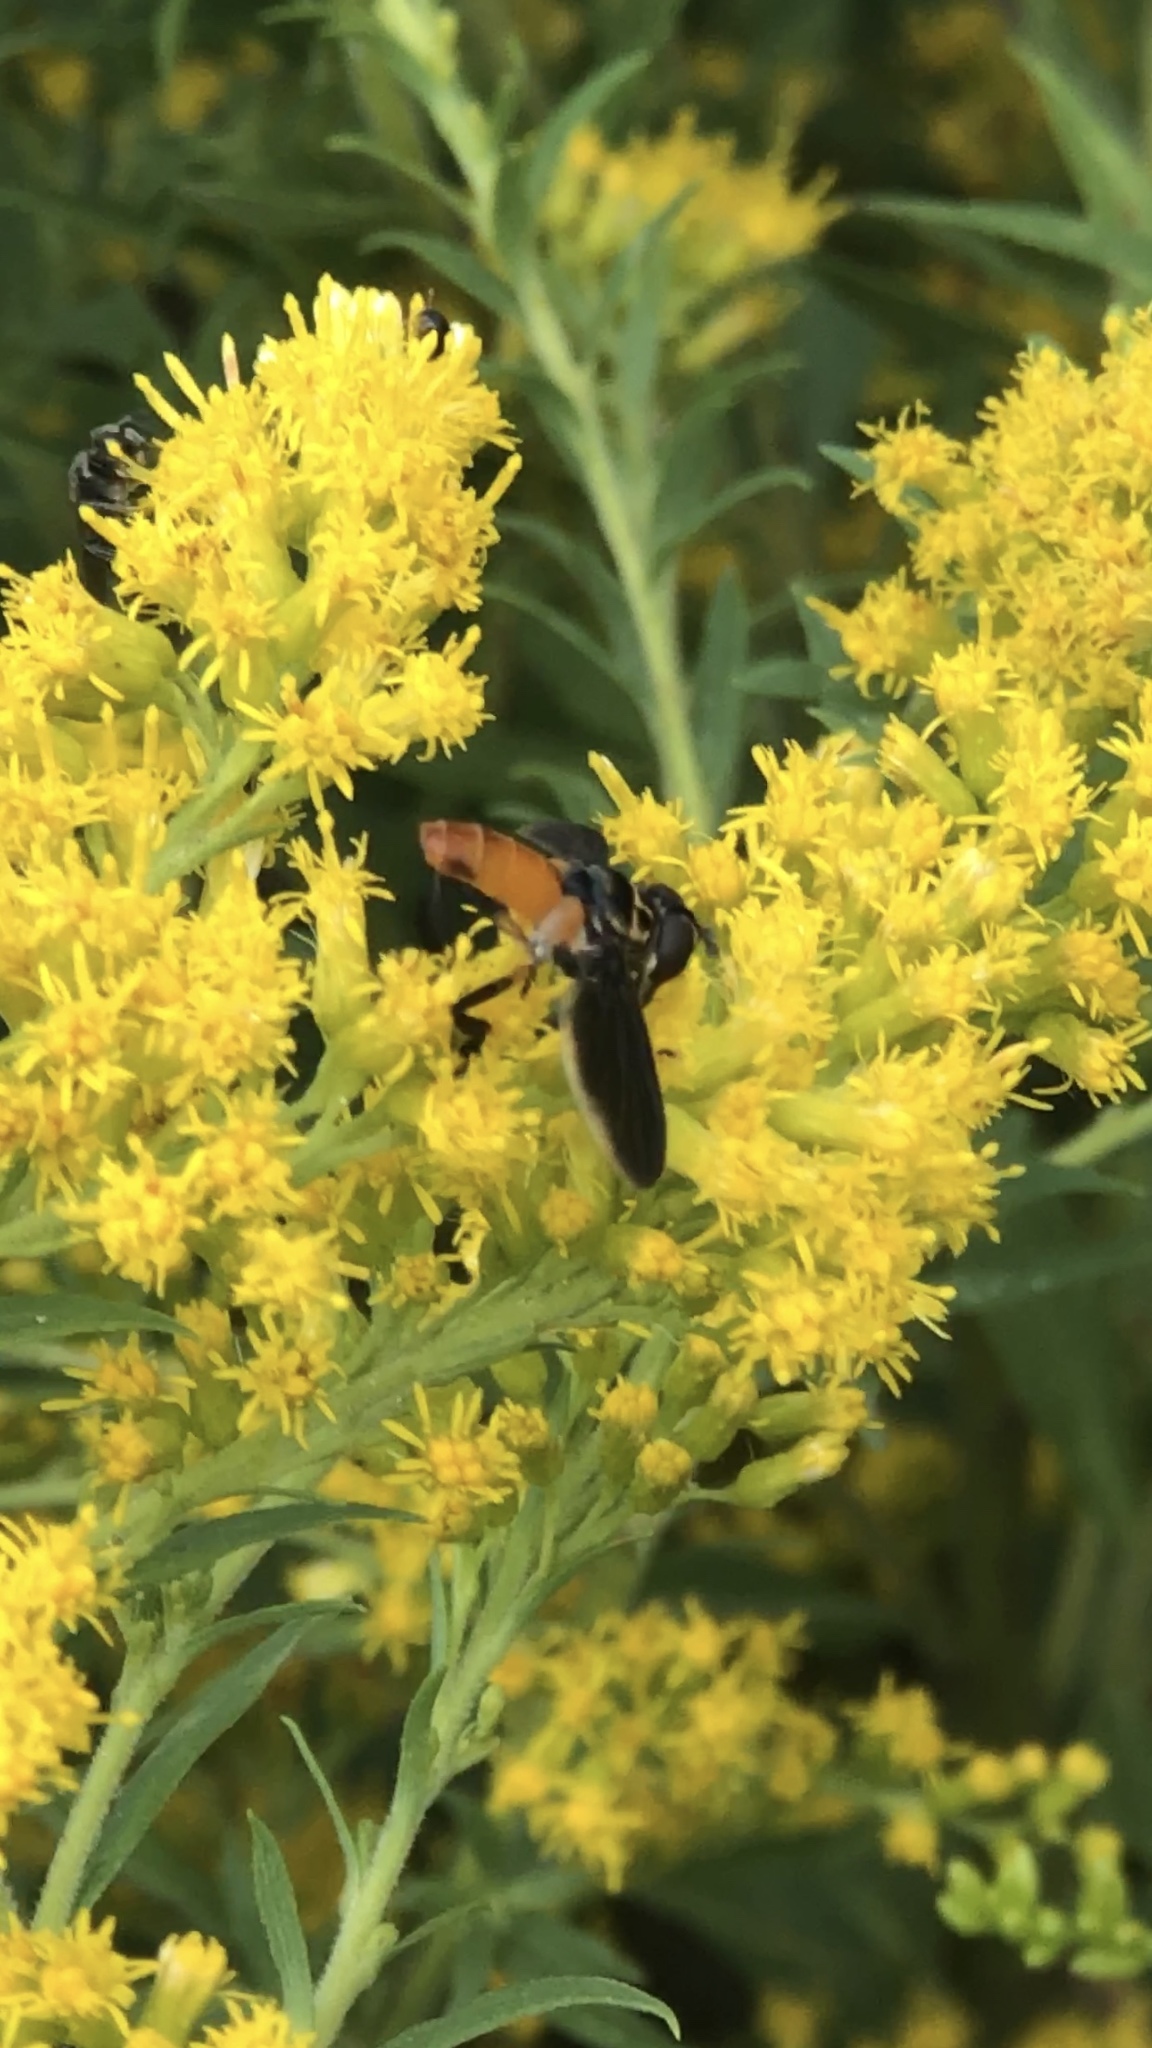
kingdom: Animalia
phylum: Arthropoda
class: Insecta
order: Diptera
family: Tachinidae
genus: Trichopoda
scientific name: Trichopoda pennipes
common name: Tachinid fly
